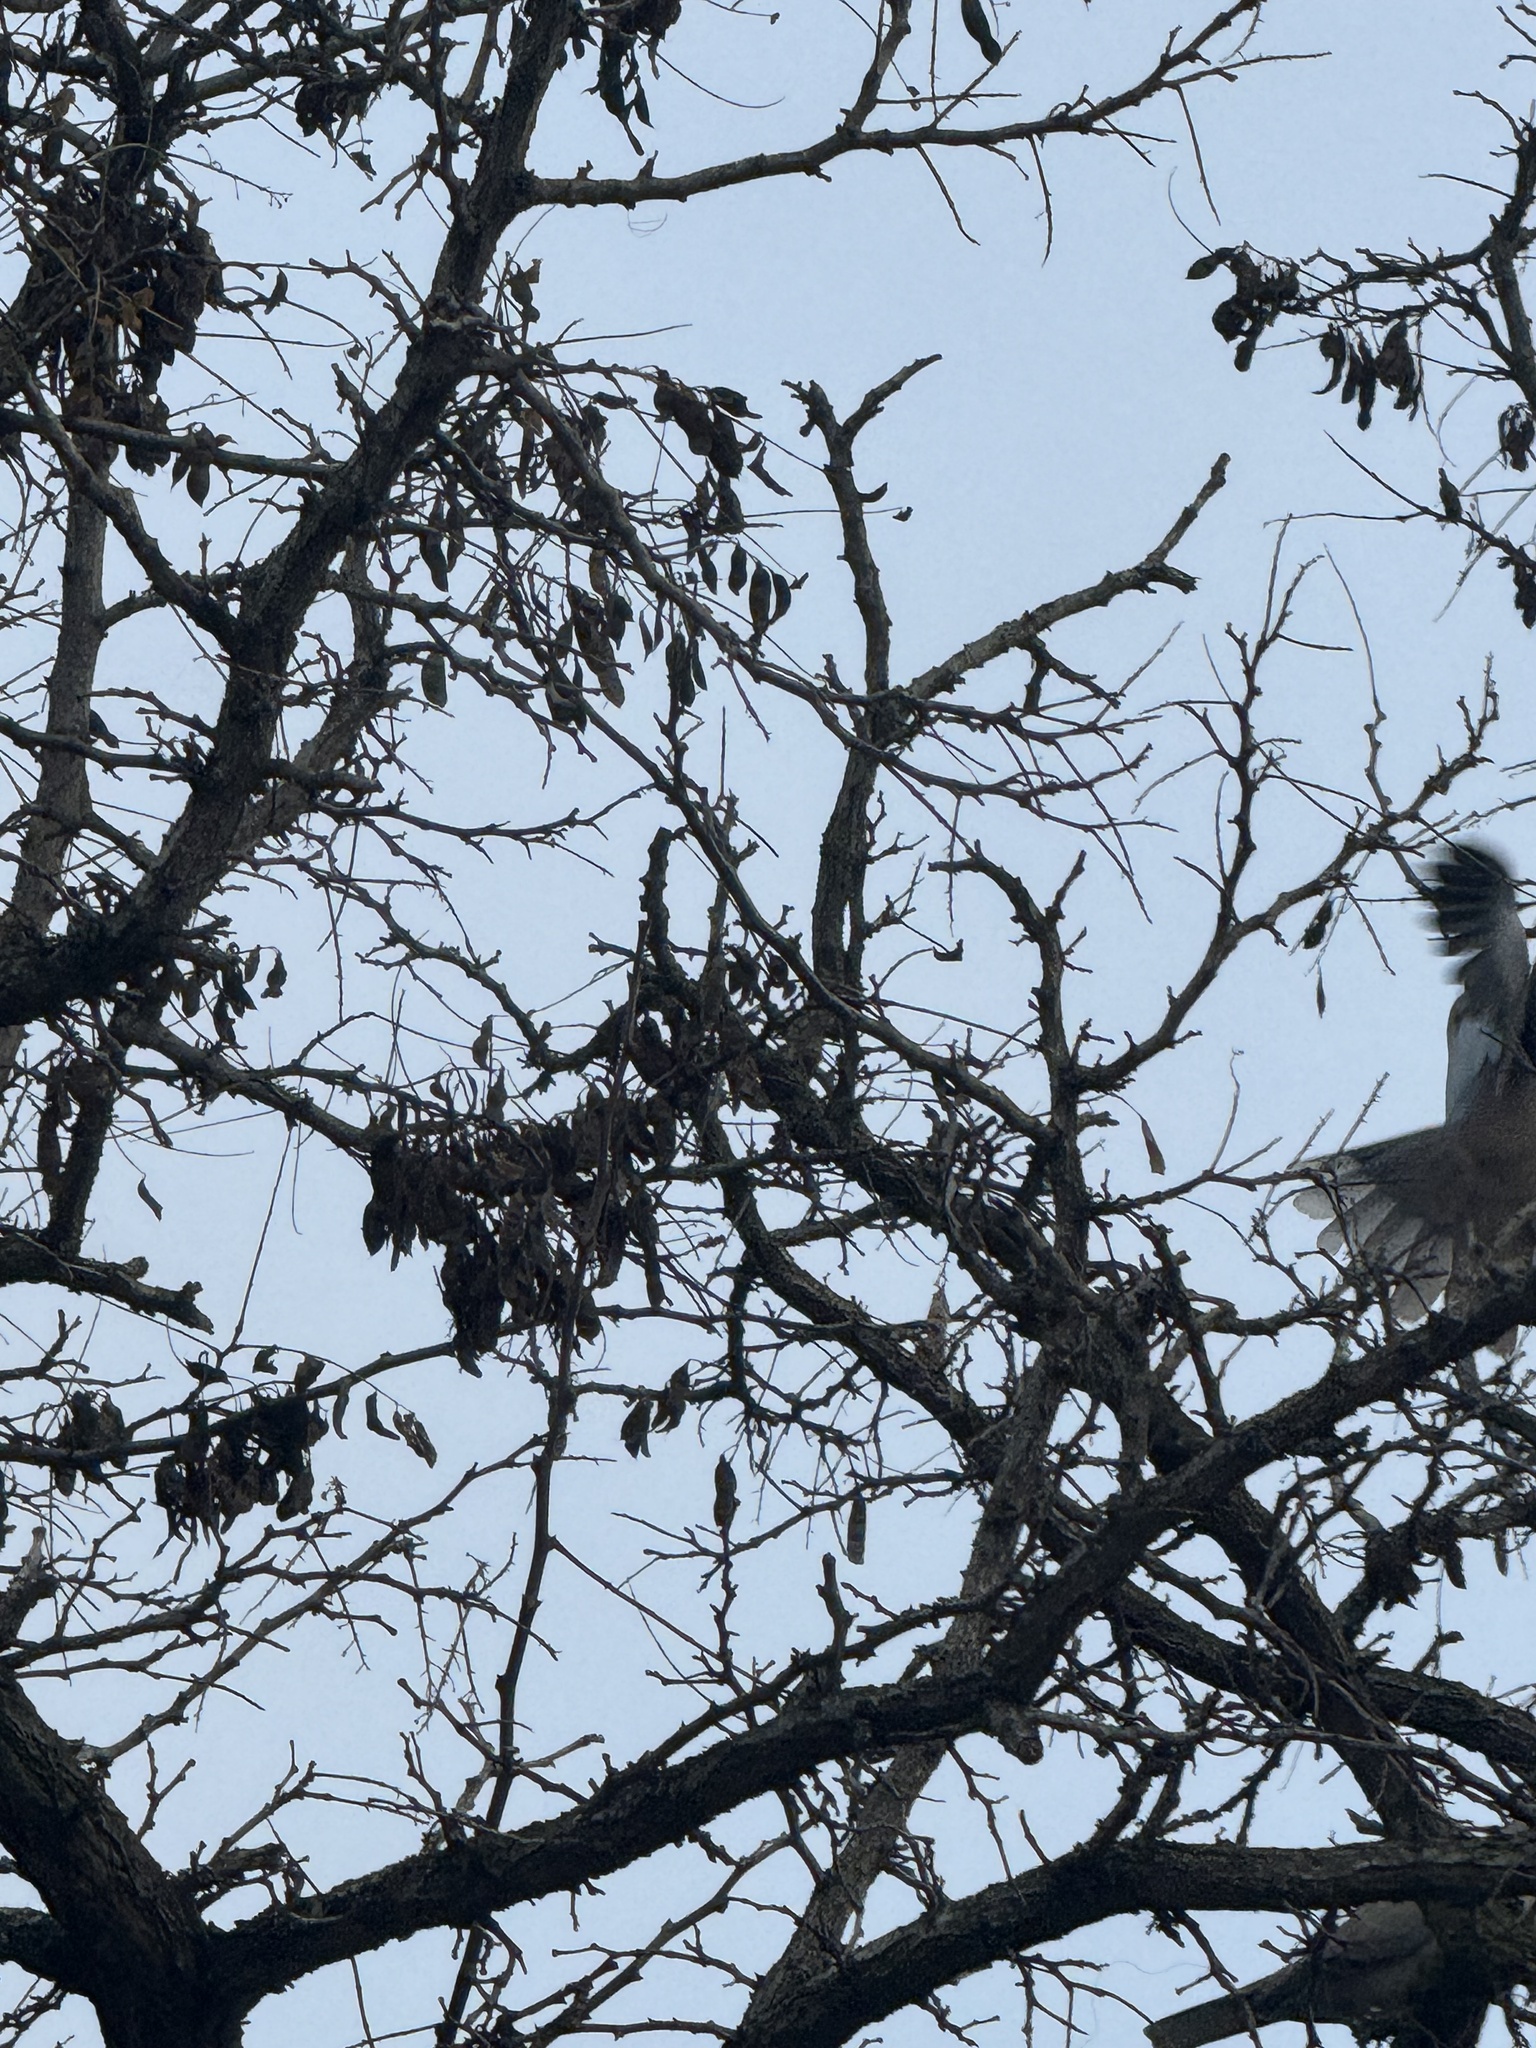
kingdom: Animalia
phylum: Chordata
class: Aves
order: Columbiformes
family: Columbidae
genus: Streptopelia
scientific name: Streptopelia decaocto
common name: Eurasian collared dove
